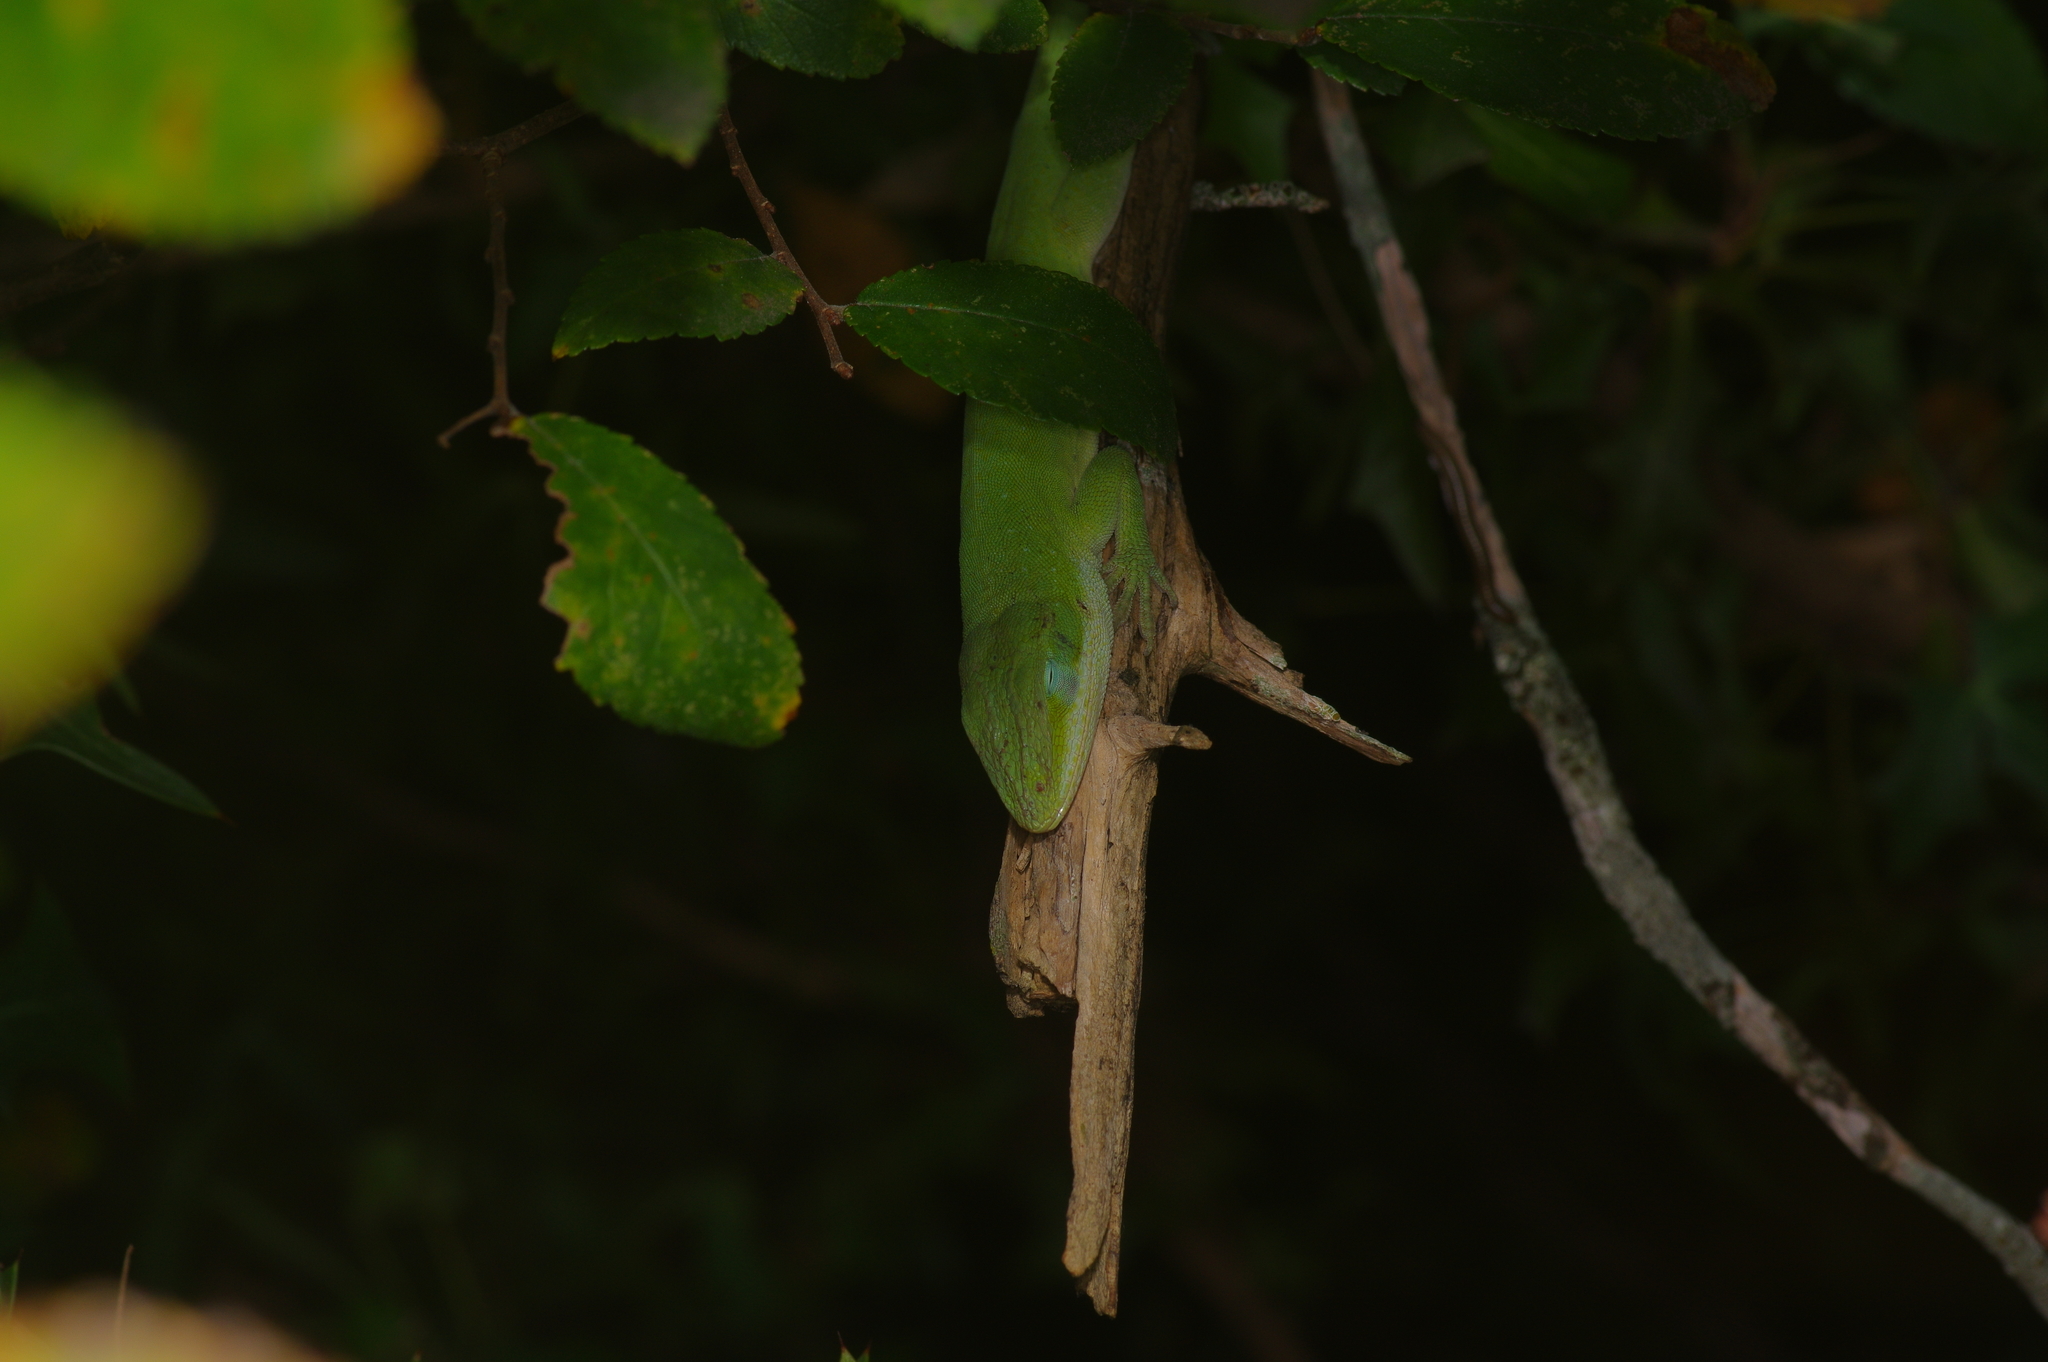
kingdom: Animalia
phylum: Chordata
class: Squamata
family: Dactyloidae
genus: Anolis
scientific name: Anolis carolinensis
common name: Green anole
